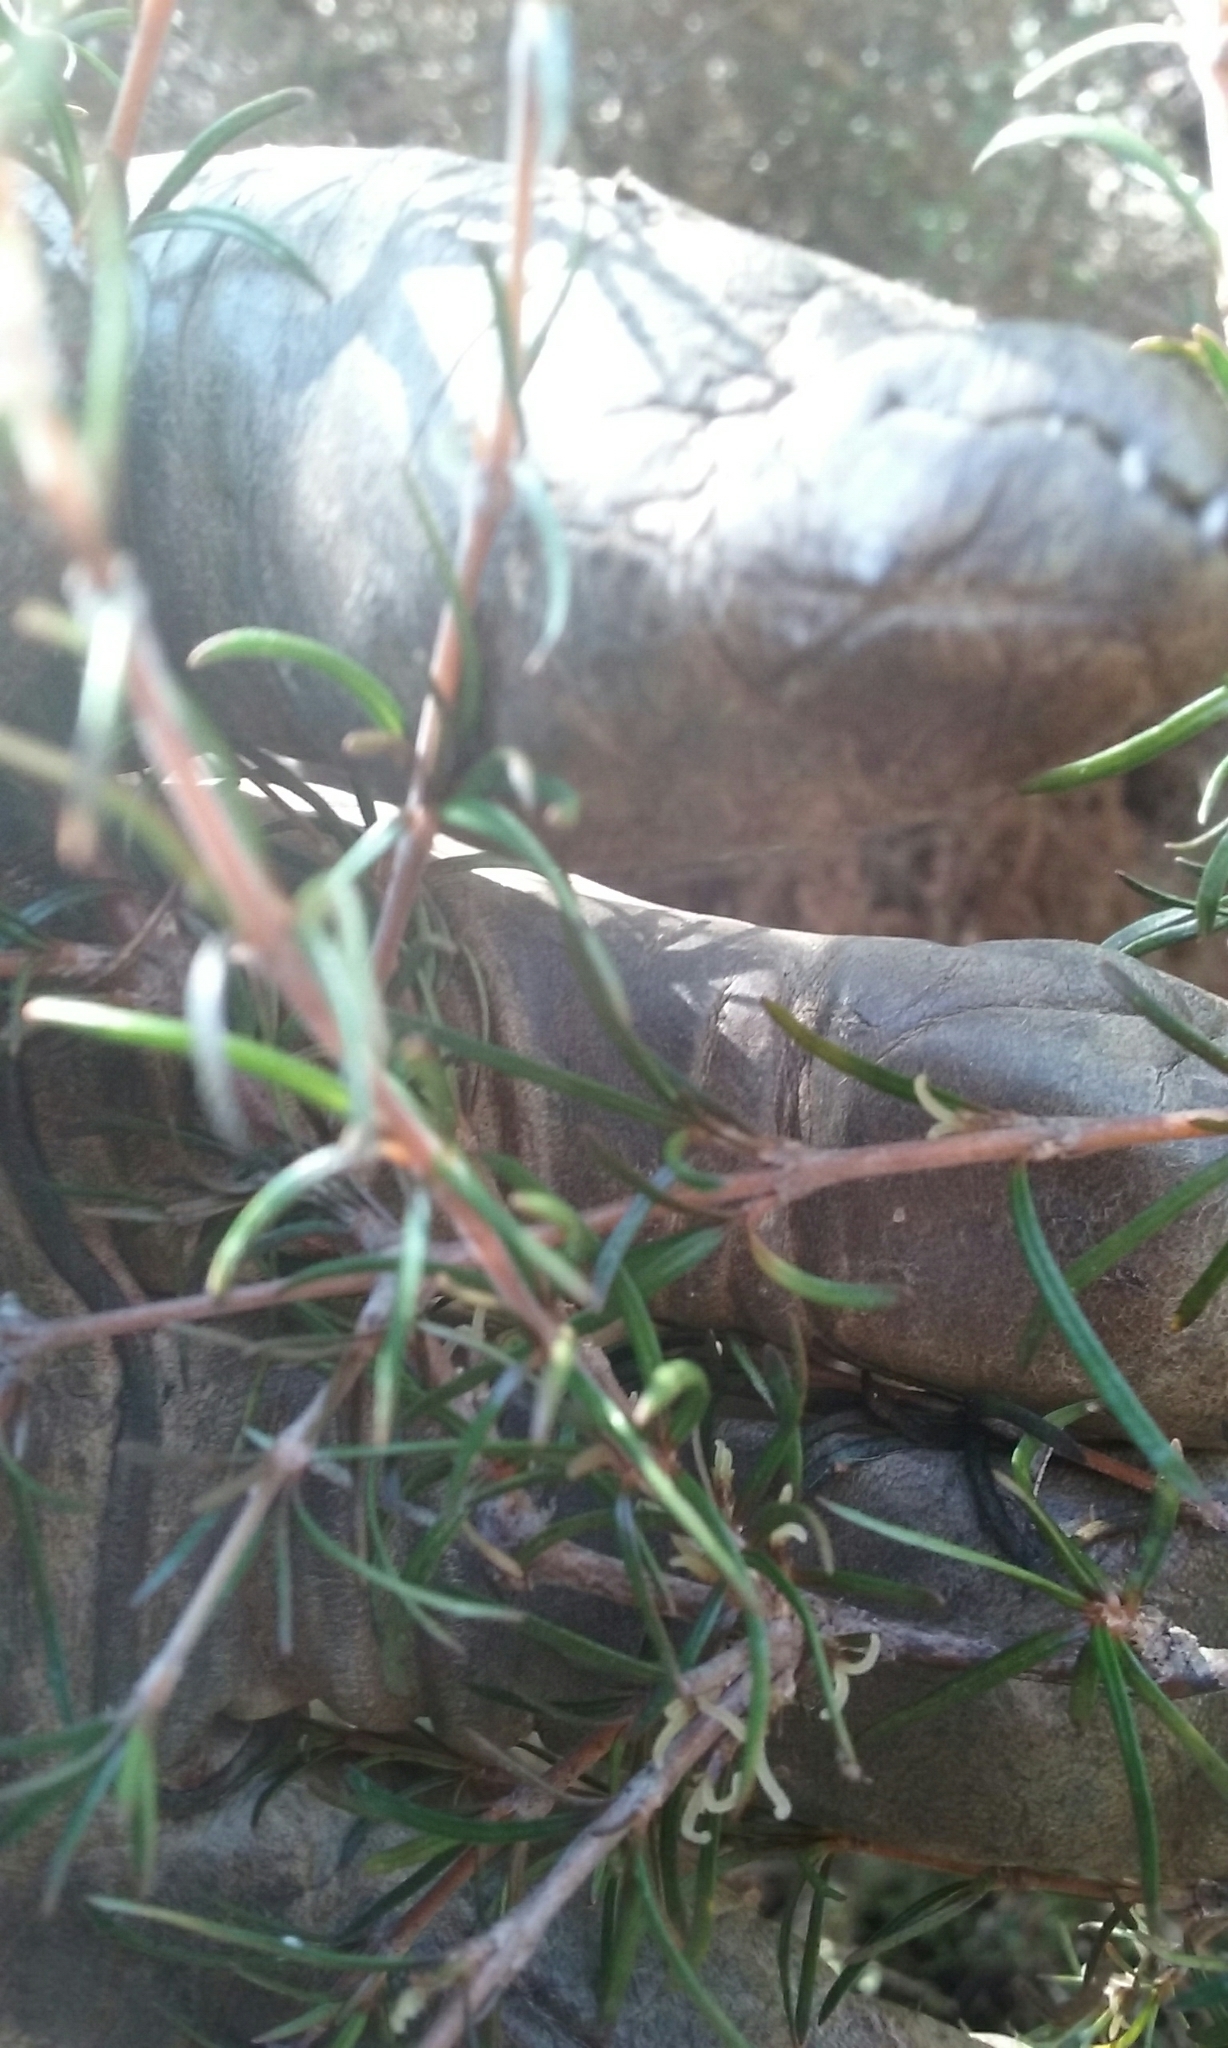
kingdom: Plantae
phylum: Tracheophyta
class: Magnoliopsida
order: Gentianales
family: Rubiaceae
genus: Coprosma
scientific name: Coprosma rugosa
